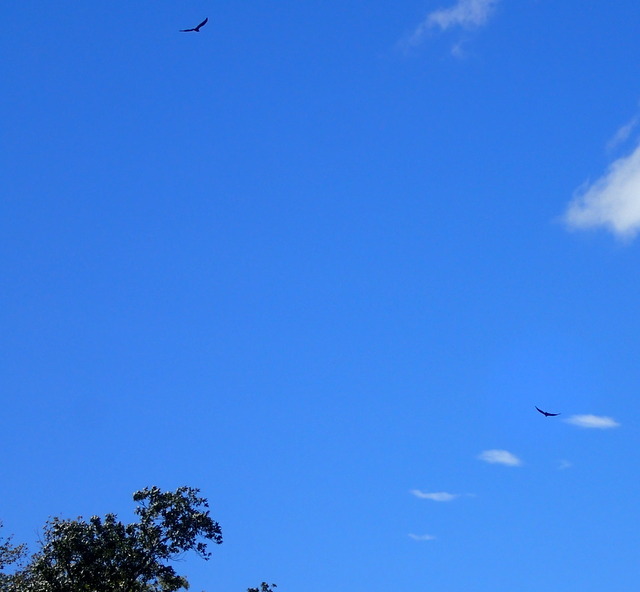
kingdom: Animalia
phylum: Chordata
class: Aves
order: Accipitriformes
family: Cathartidae
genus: Cathartes
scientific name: Cathartes aura
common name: Turkey vulture
